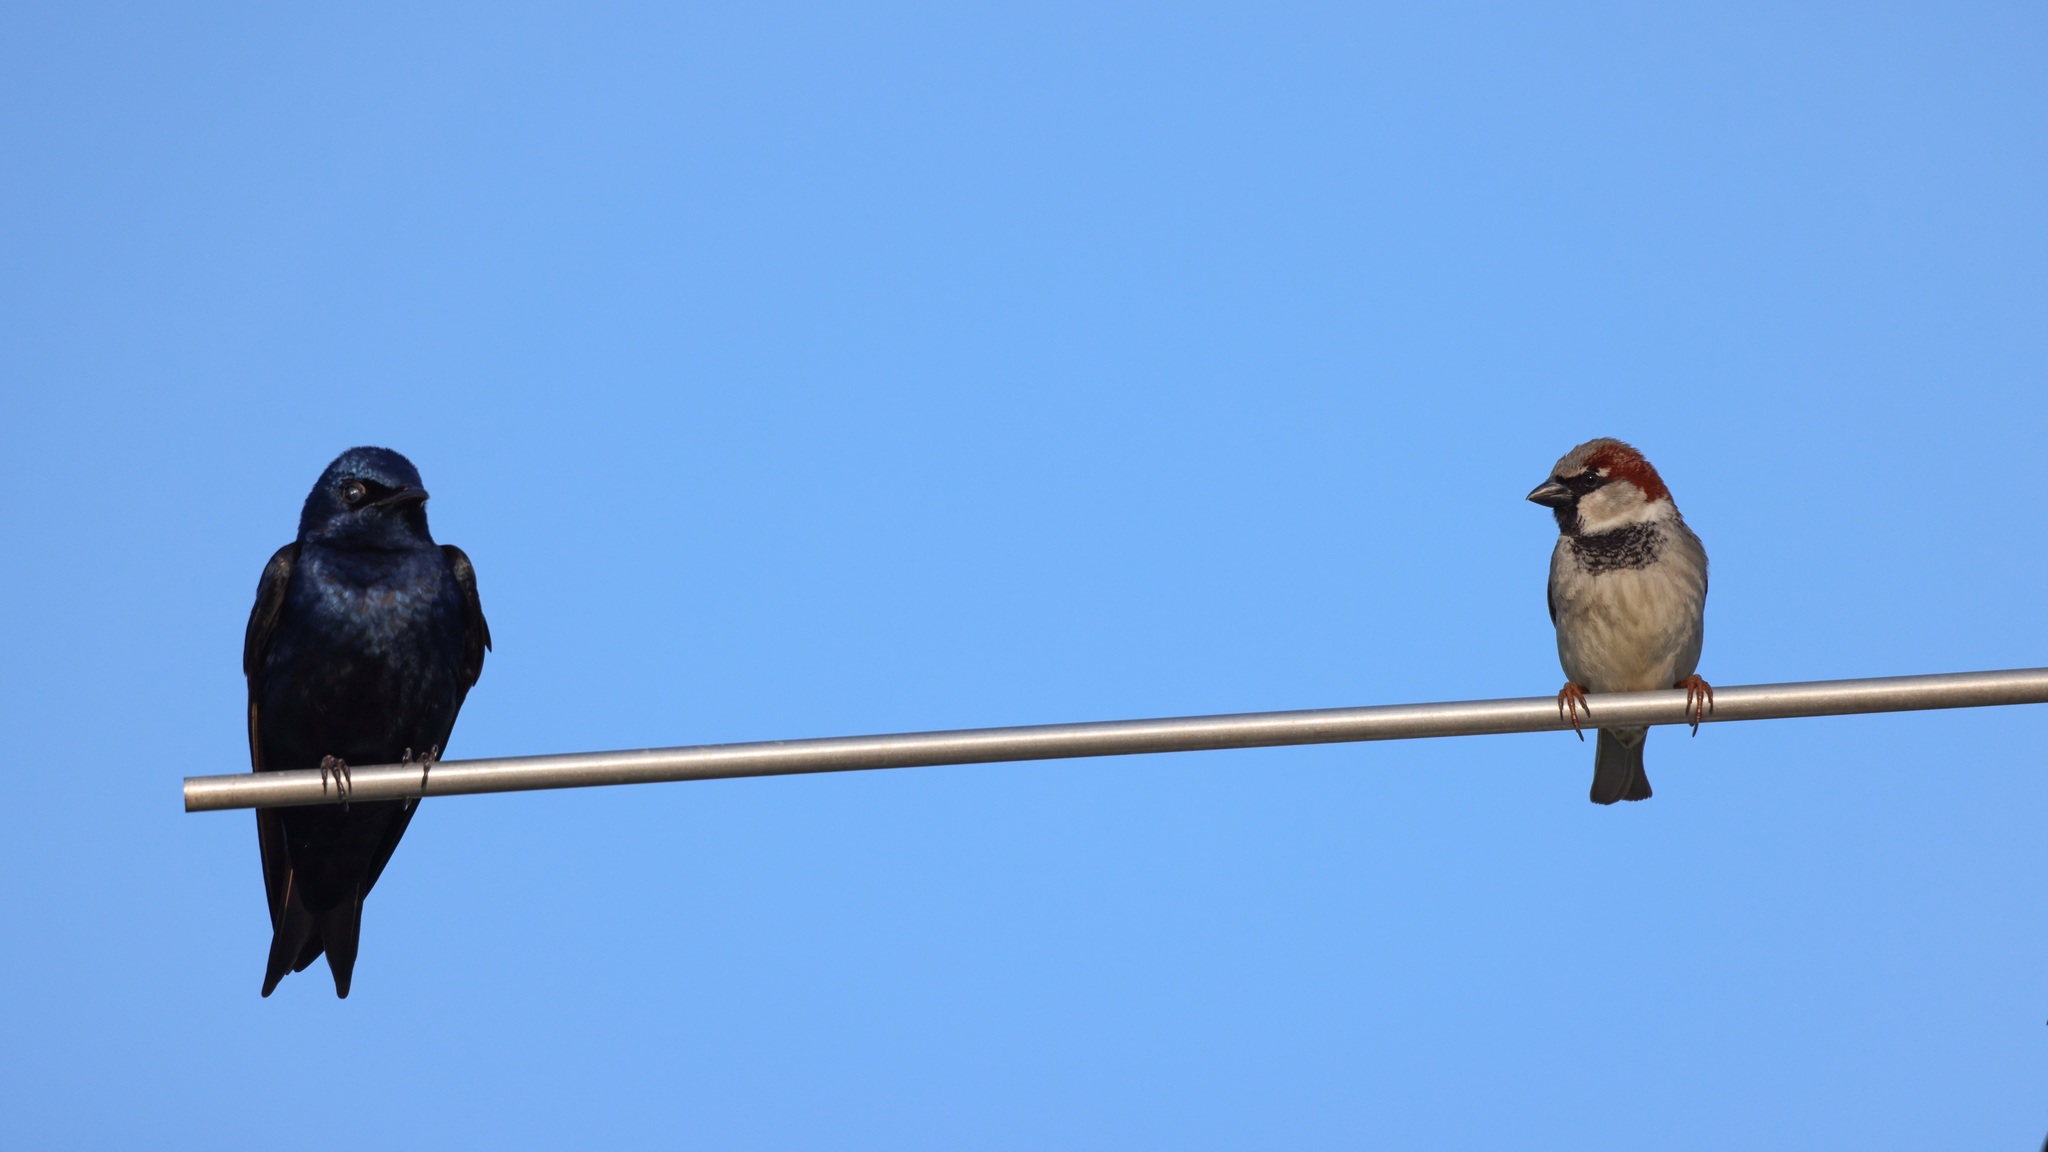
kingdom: Animalia
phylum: Chordata
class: Aves
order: Passeriformes
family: Hirundinidae
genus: Progne
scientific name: Progne subis
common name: Purple martin
